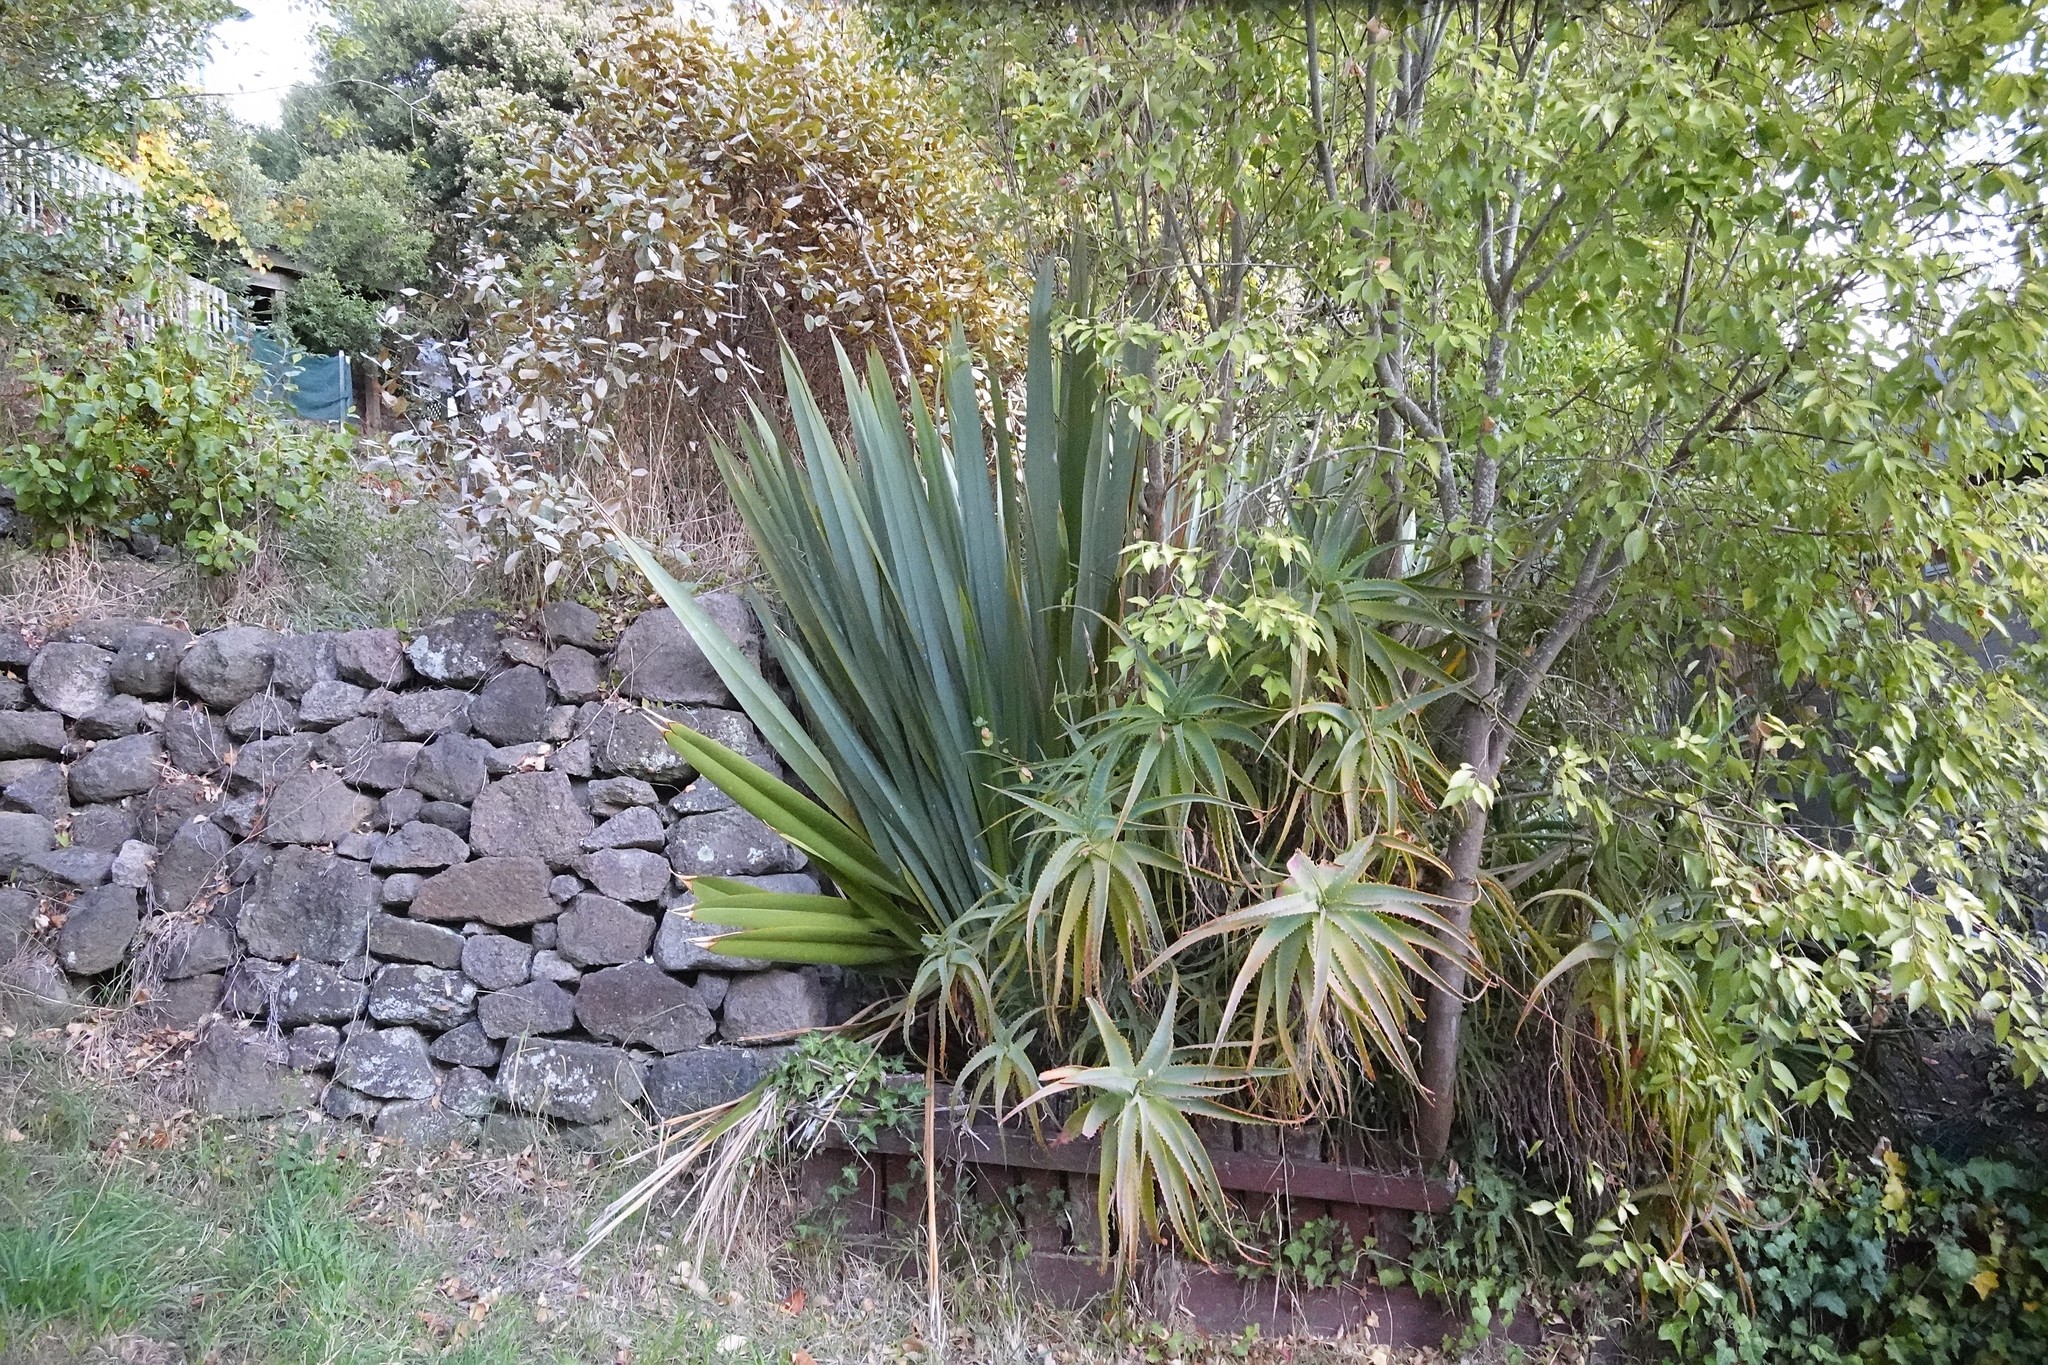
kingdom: Plantae
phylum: Tracheophyta
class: Liliopsida
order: Asparagales
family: Asphodelaceae
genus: Phormium
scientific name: Phormium tenax
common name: New zealand flax
